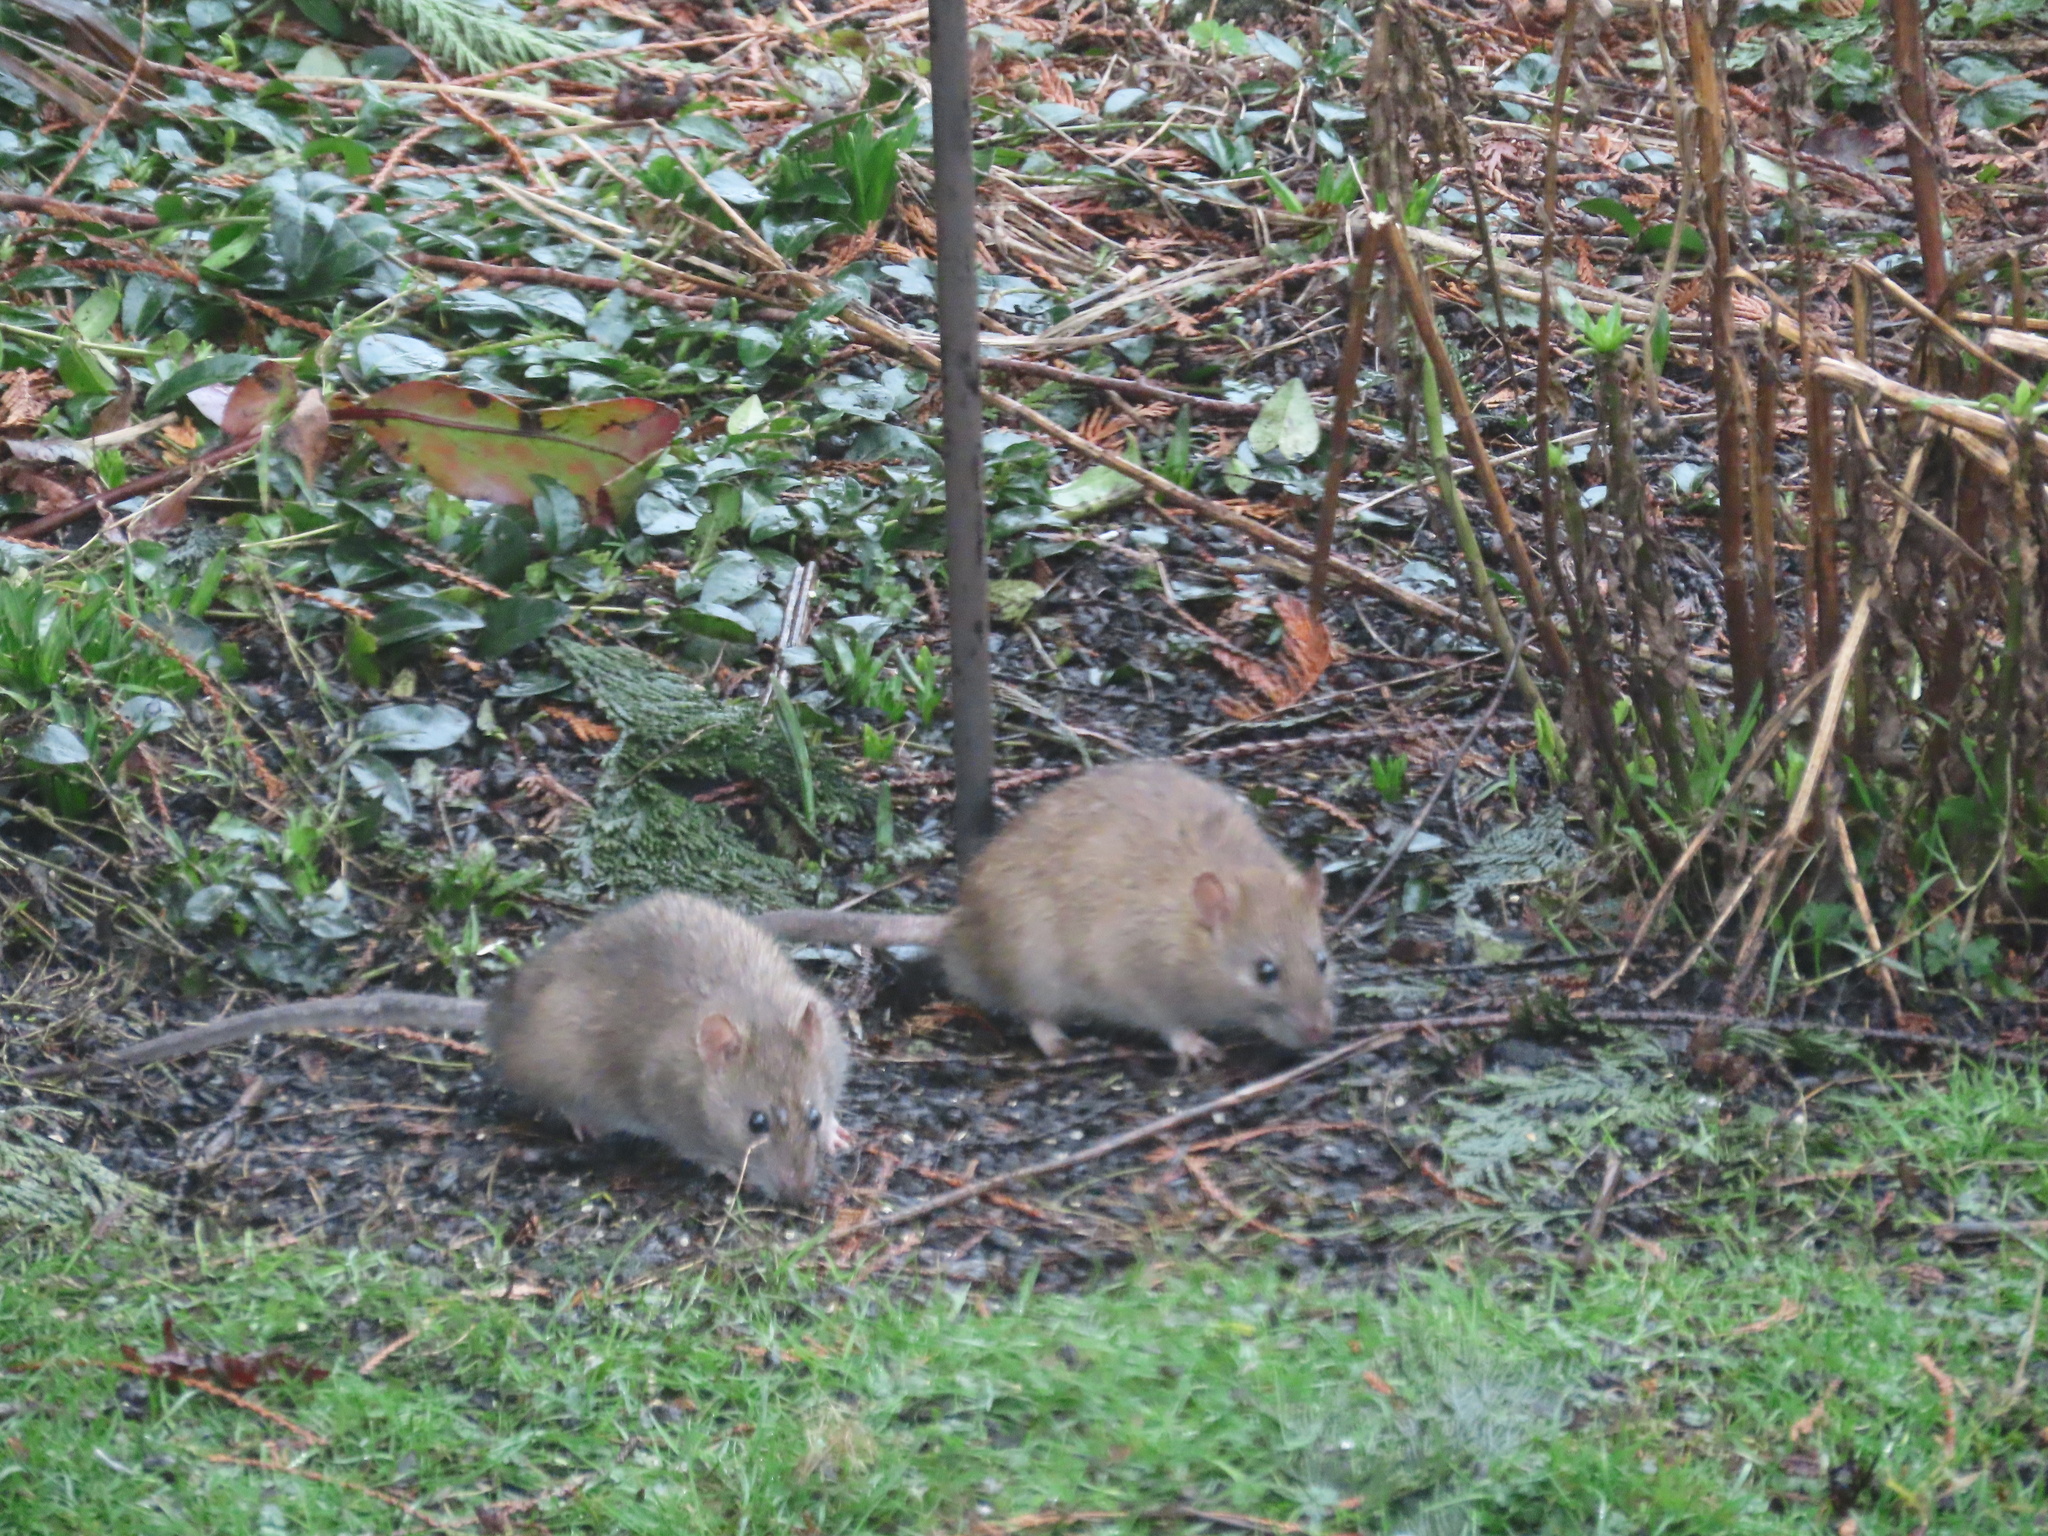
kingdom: Animalia
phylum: Chordata
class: Mammalia
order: Rodentia
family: Muridae
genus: Rattus
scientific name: Rattus norvegicus
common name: Brown rat
